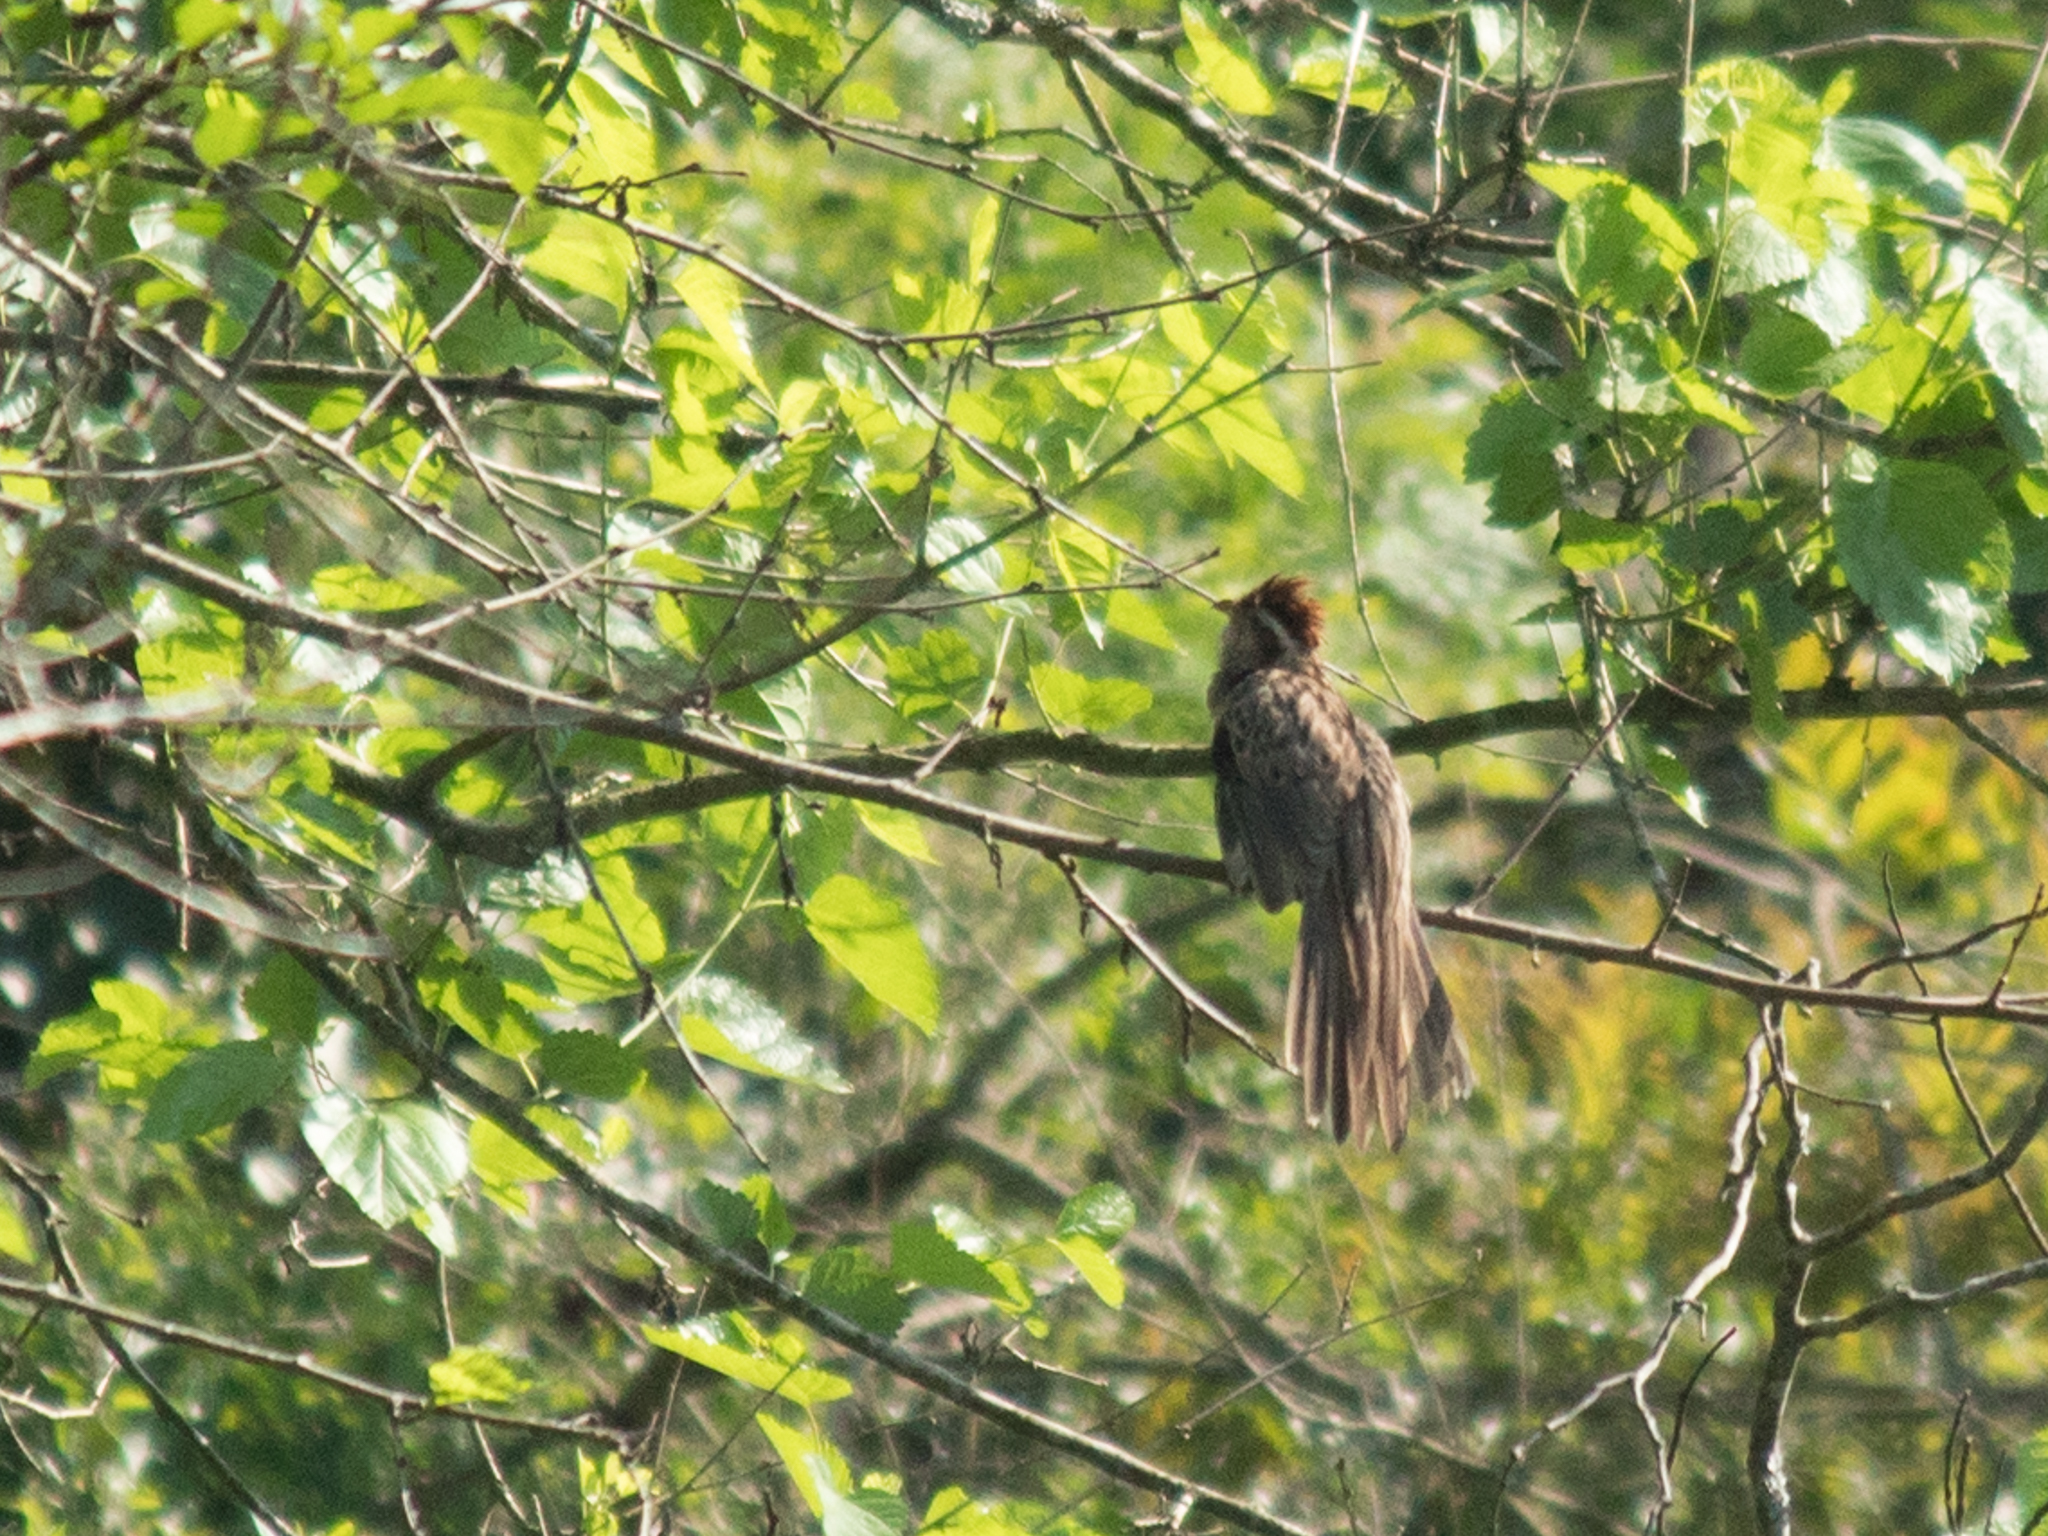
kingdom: Animalia
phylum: Chordata
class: Aves
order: Cuculiformes
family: Cuculidae
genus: Tapera
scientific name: Tapera naevia
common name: Striped cuckoo
